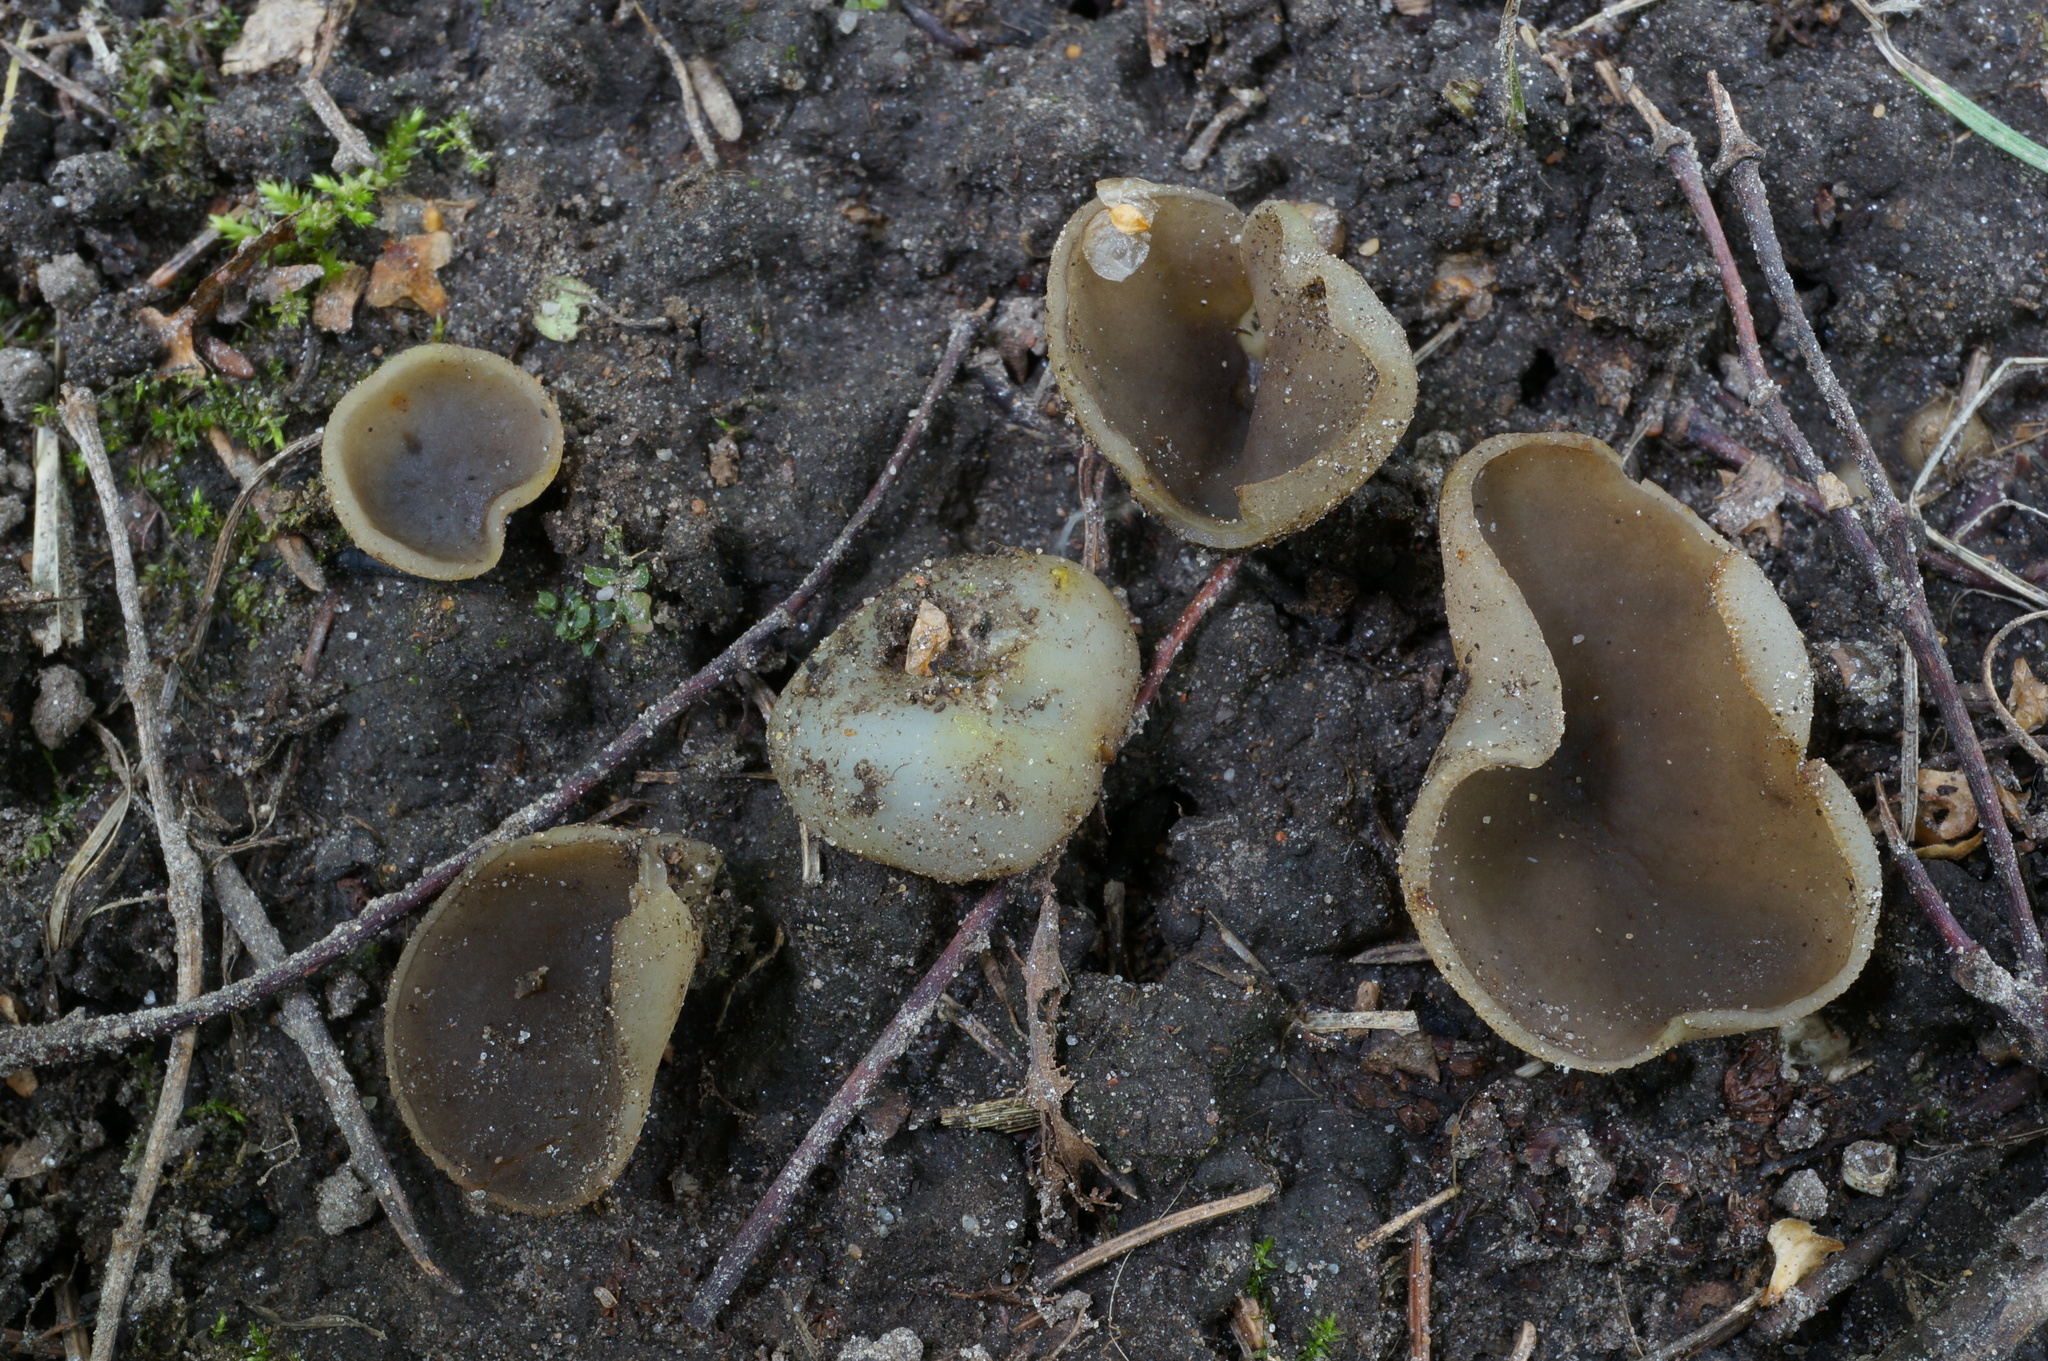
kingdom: Fungi
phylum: Ascomycota
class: Pezizomycetes
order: Pezizales
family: Pezizaceae
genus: Paragalactinia
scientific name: Paragalactinia succosa
